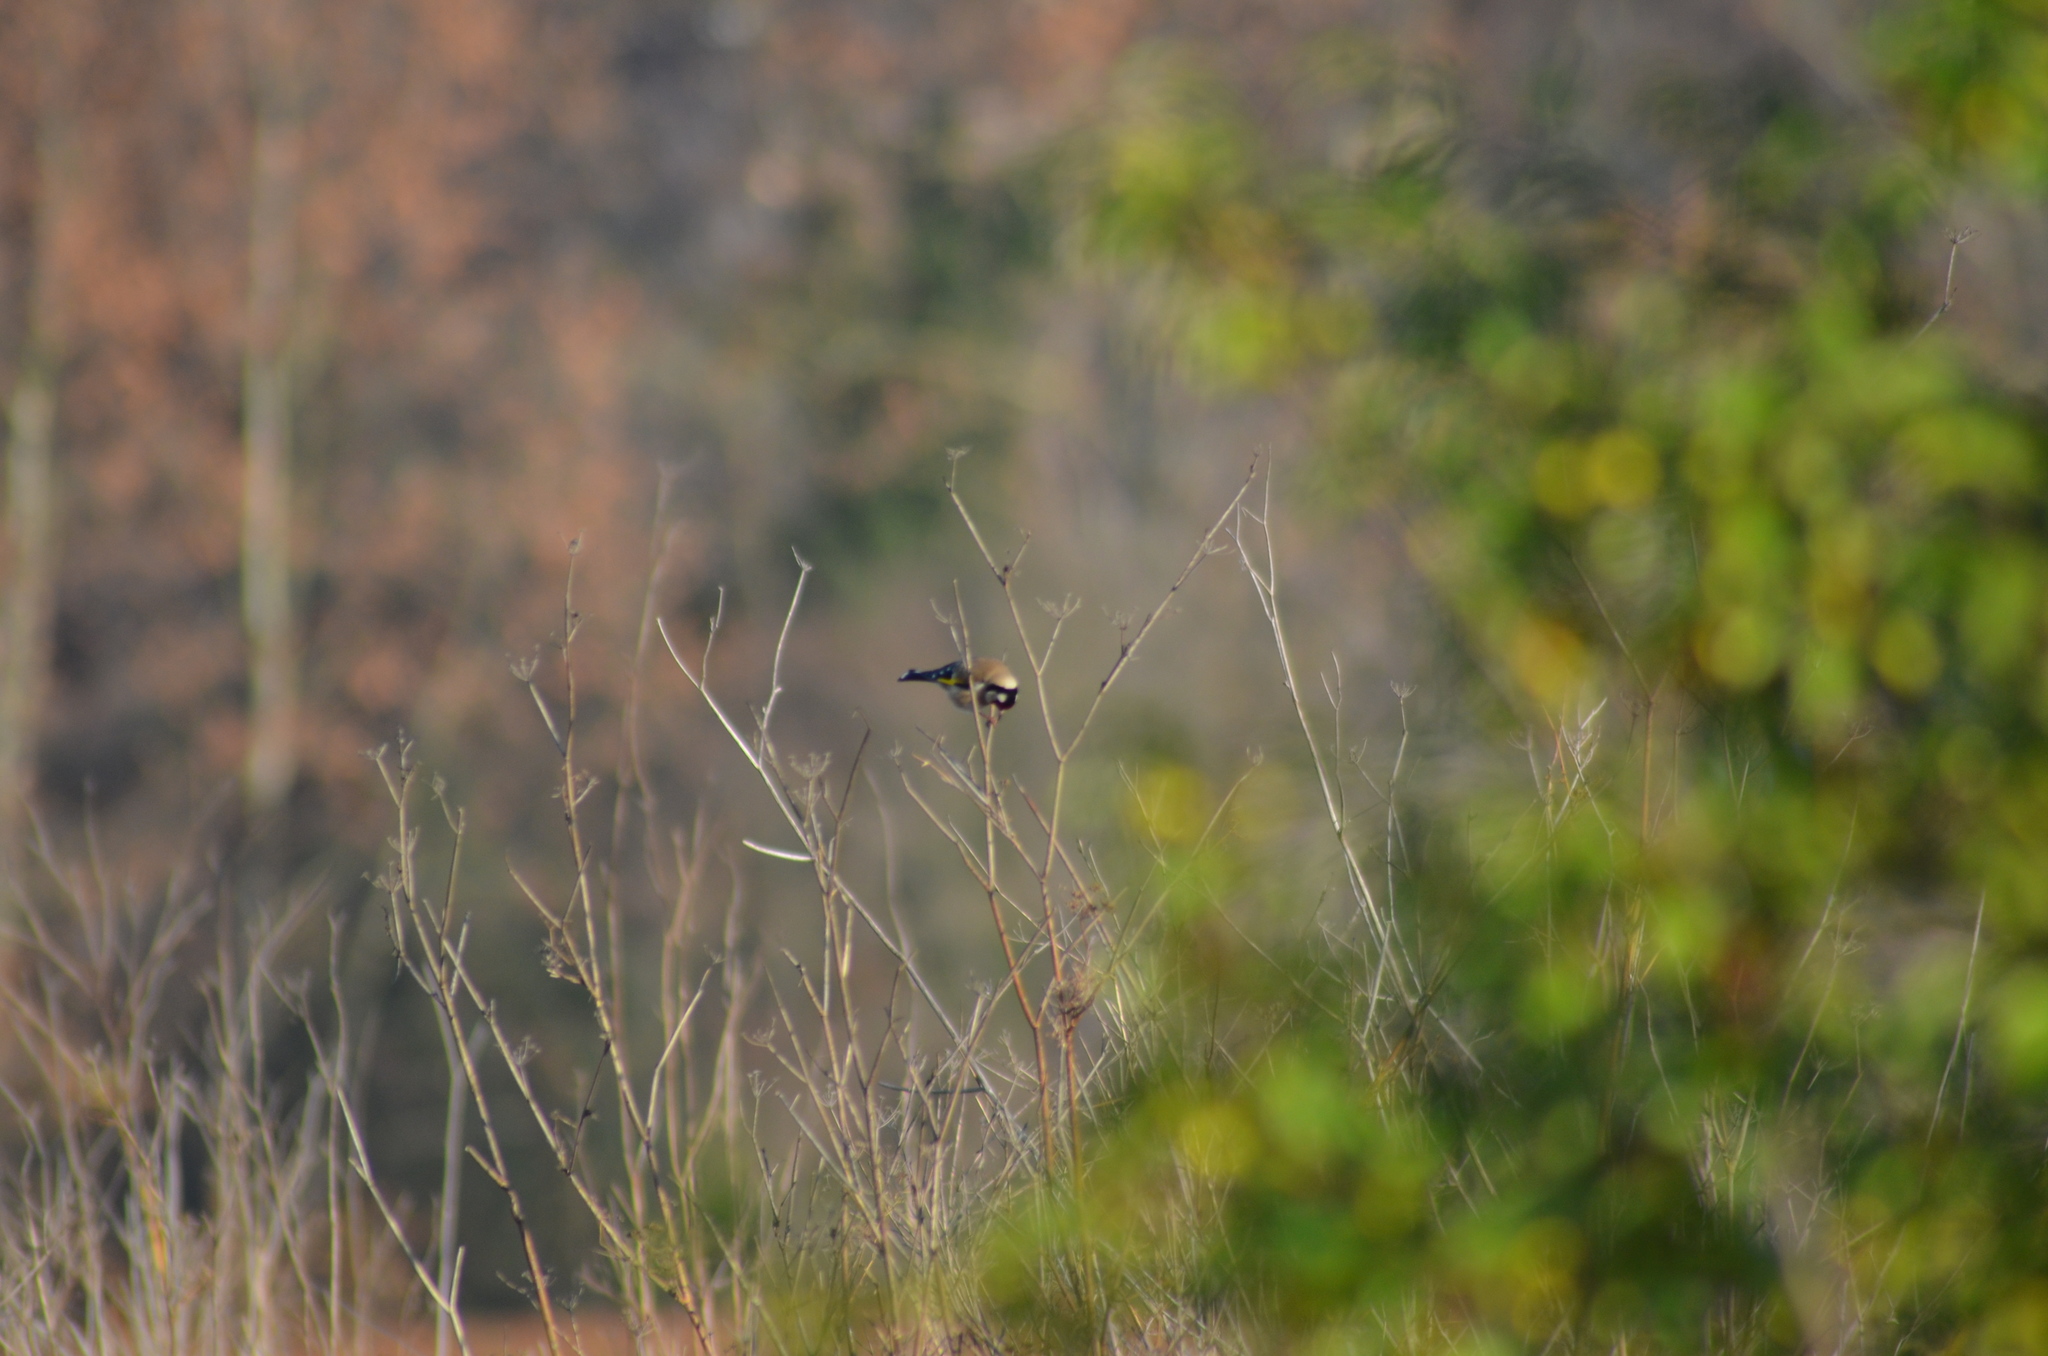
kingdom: Animalia
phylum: Chordata
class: Aves
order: Passeriformes
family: Fringillidae
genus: Carduelis
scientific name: Carduelis carduelis
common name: European goldfinch
